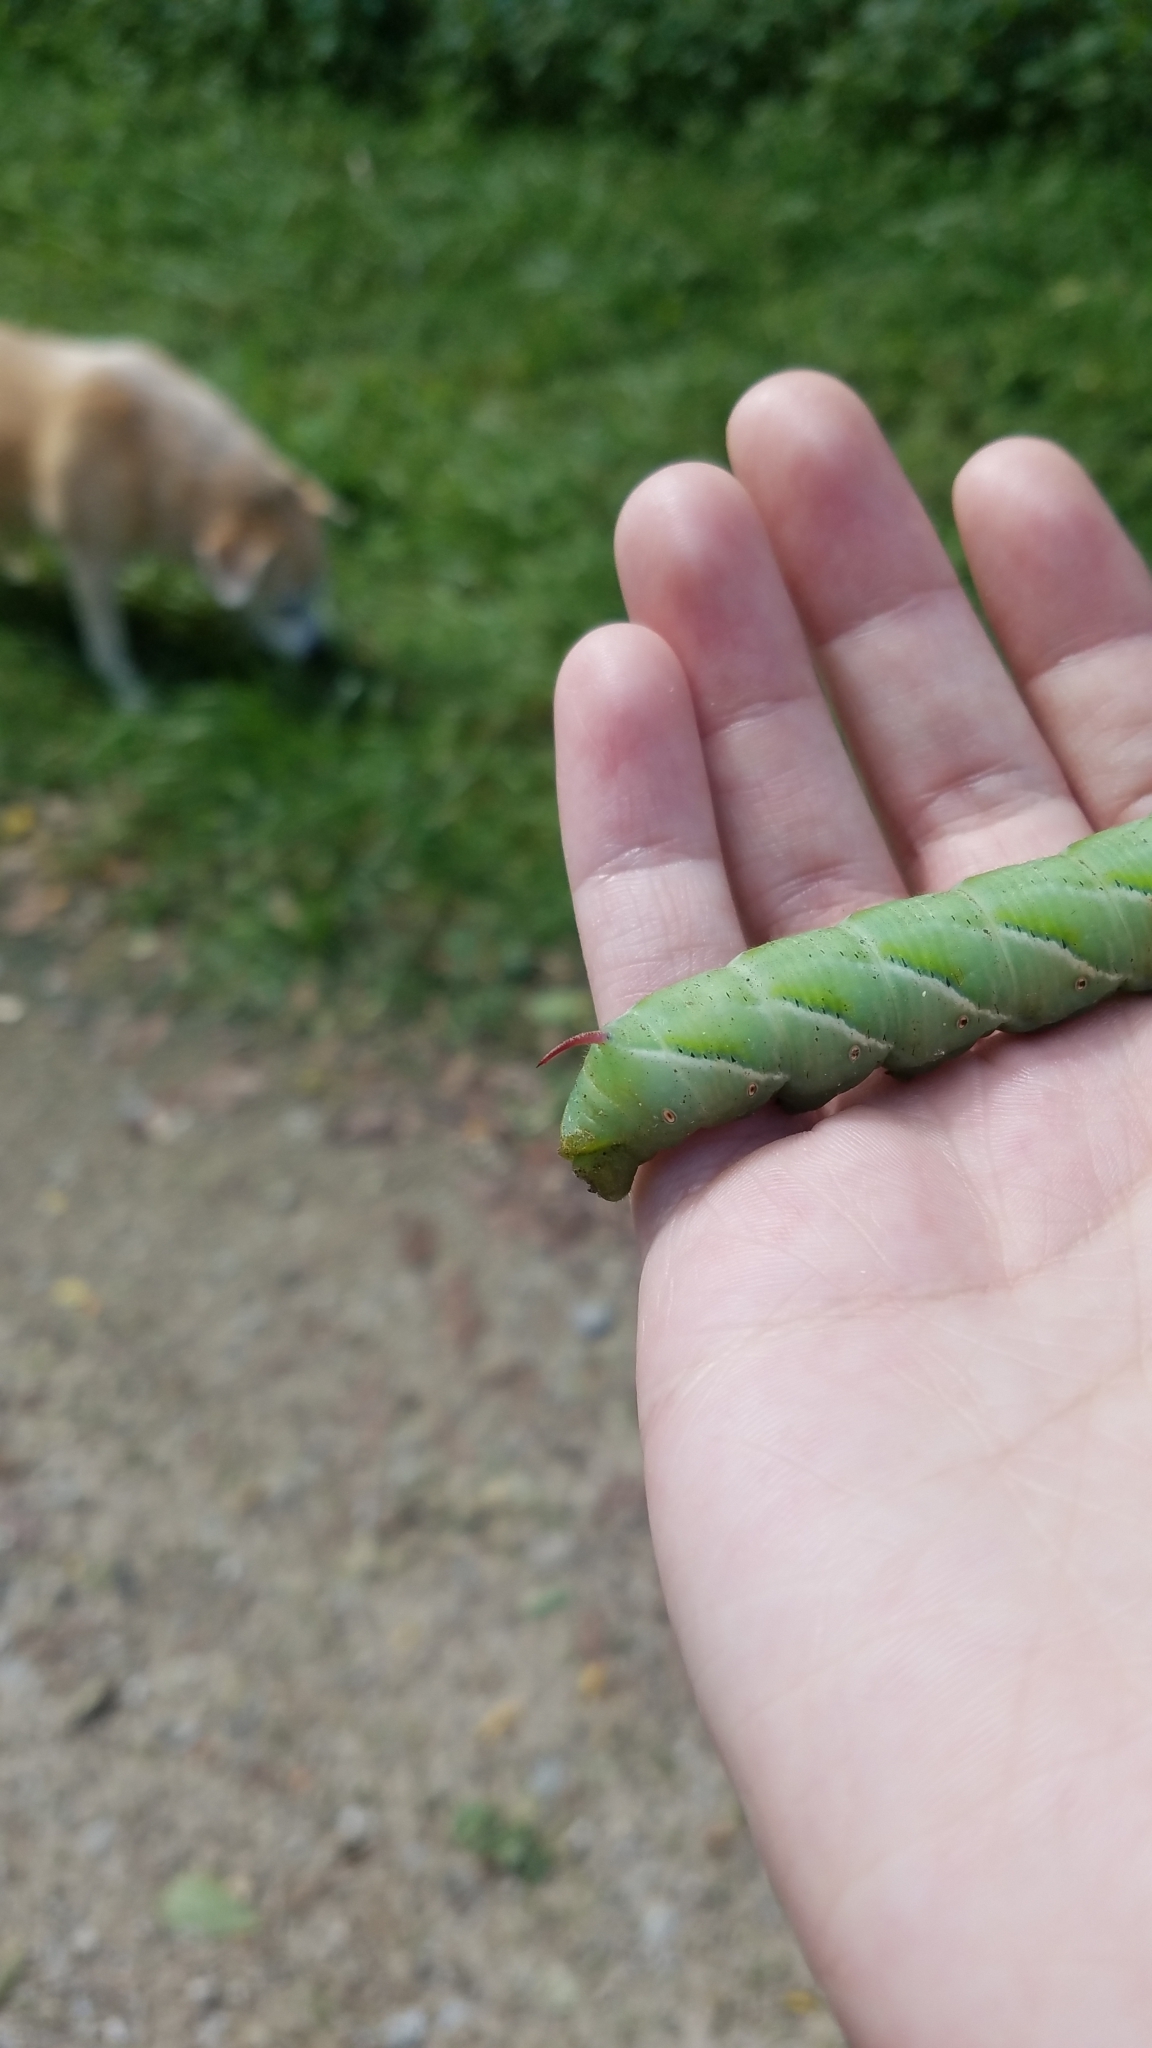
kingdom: Animalia
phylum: Arthropoda
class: Insecta
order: Lepidoptera
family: Sphingidae
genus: Manduca
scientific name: Manduca sexta
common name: Carolina sphinx
